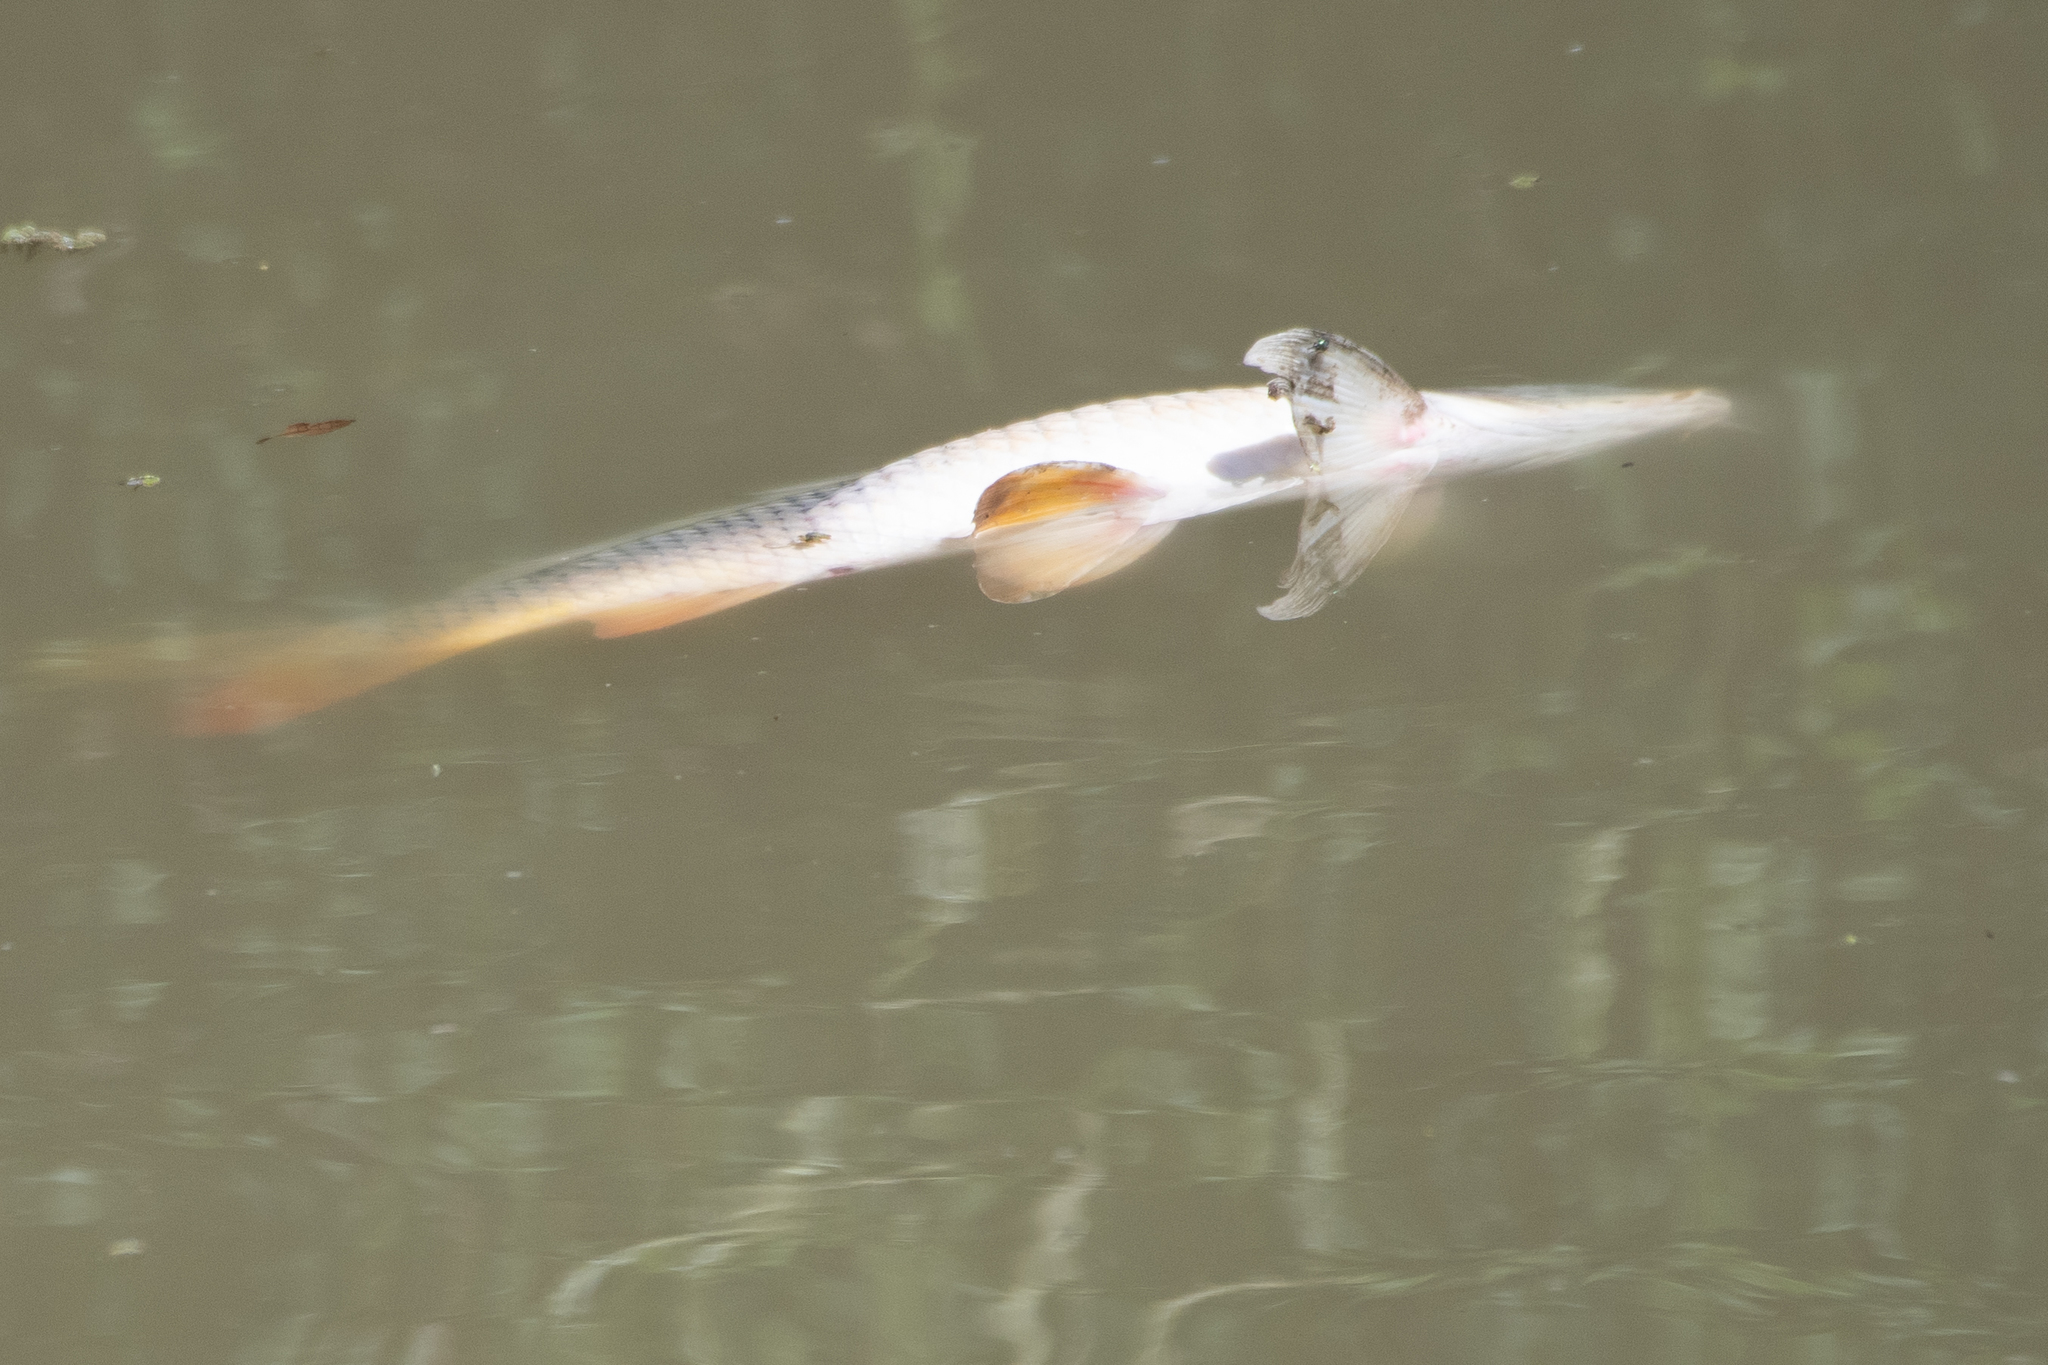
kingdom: Animalia
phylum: Chordata
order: Cypriniformes
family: Cyprinidae
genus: Cyprinus
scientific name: Cyprinus carpio
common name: Common carp
